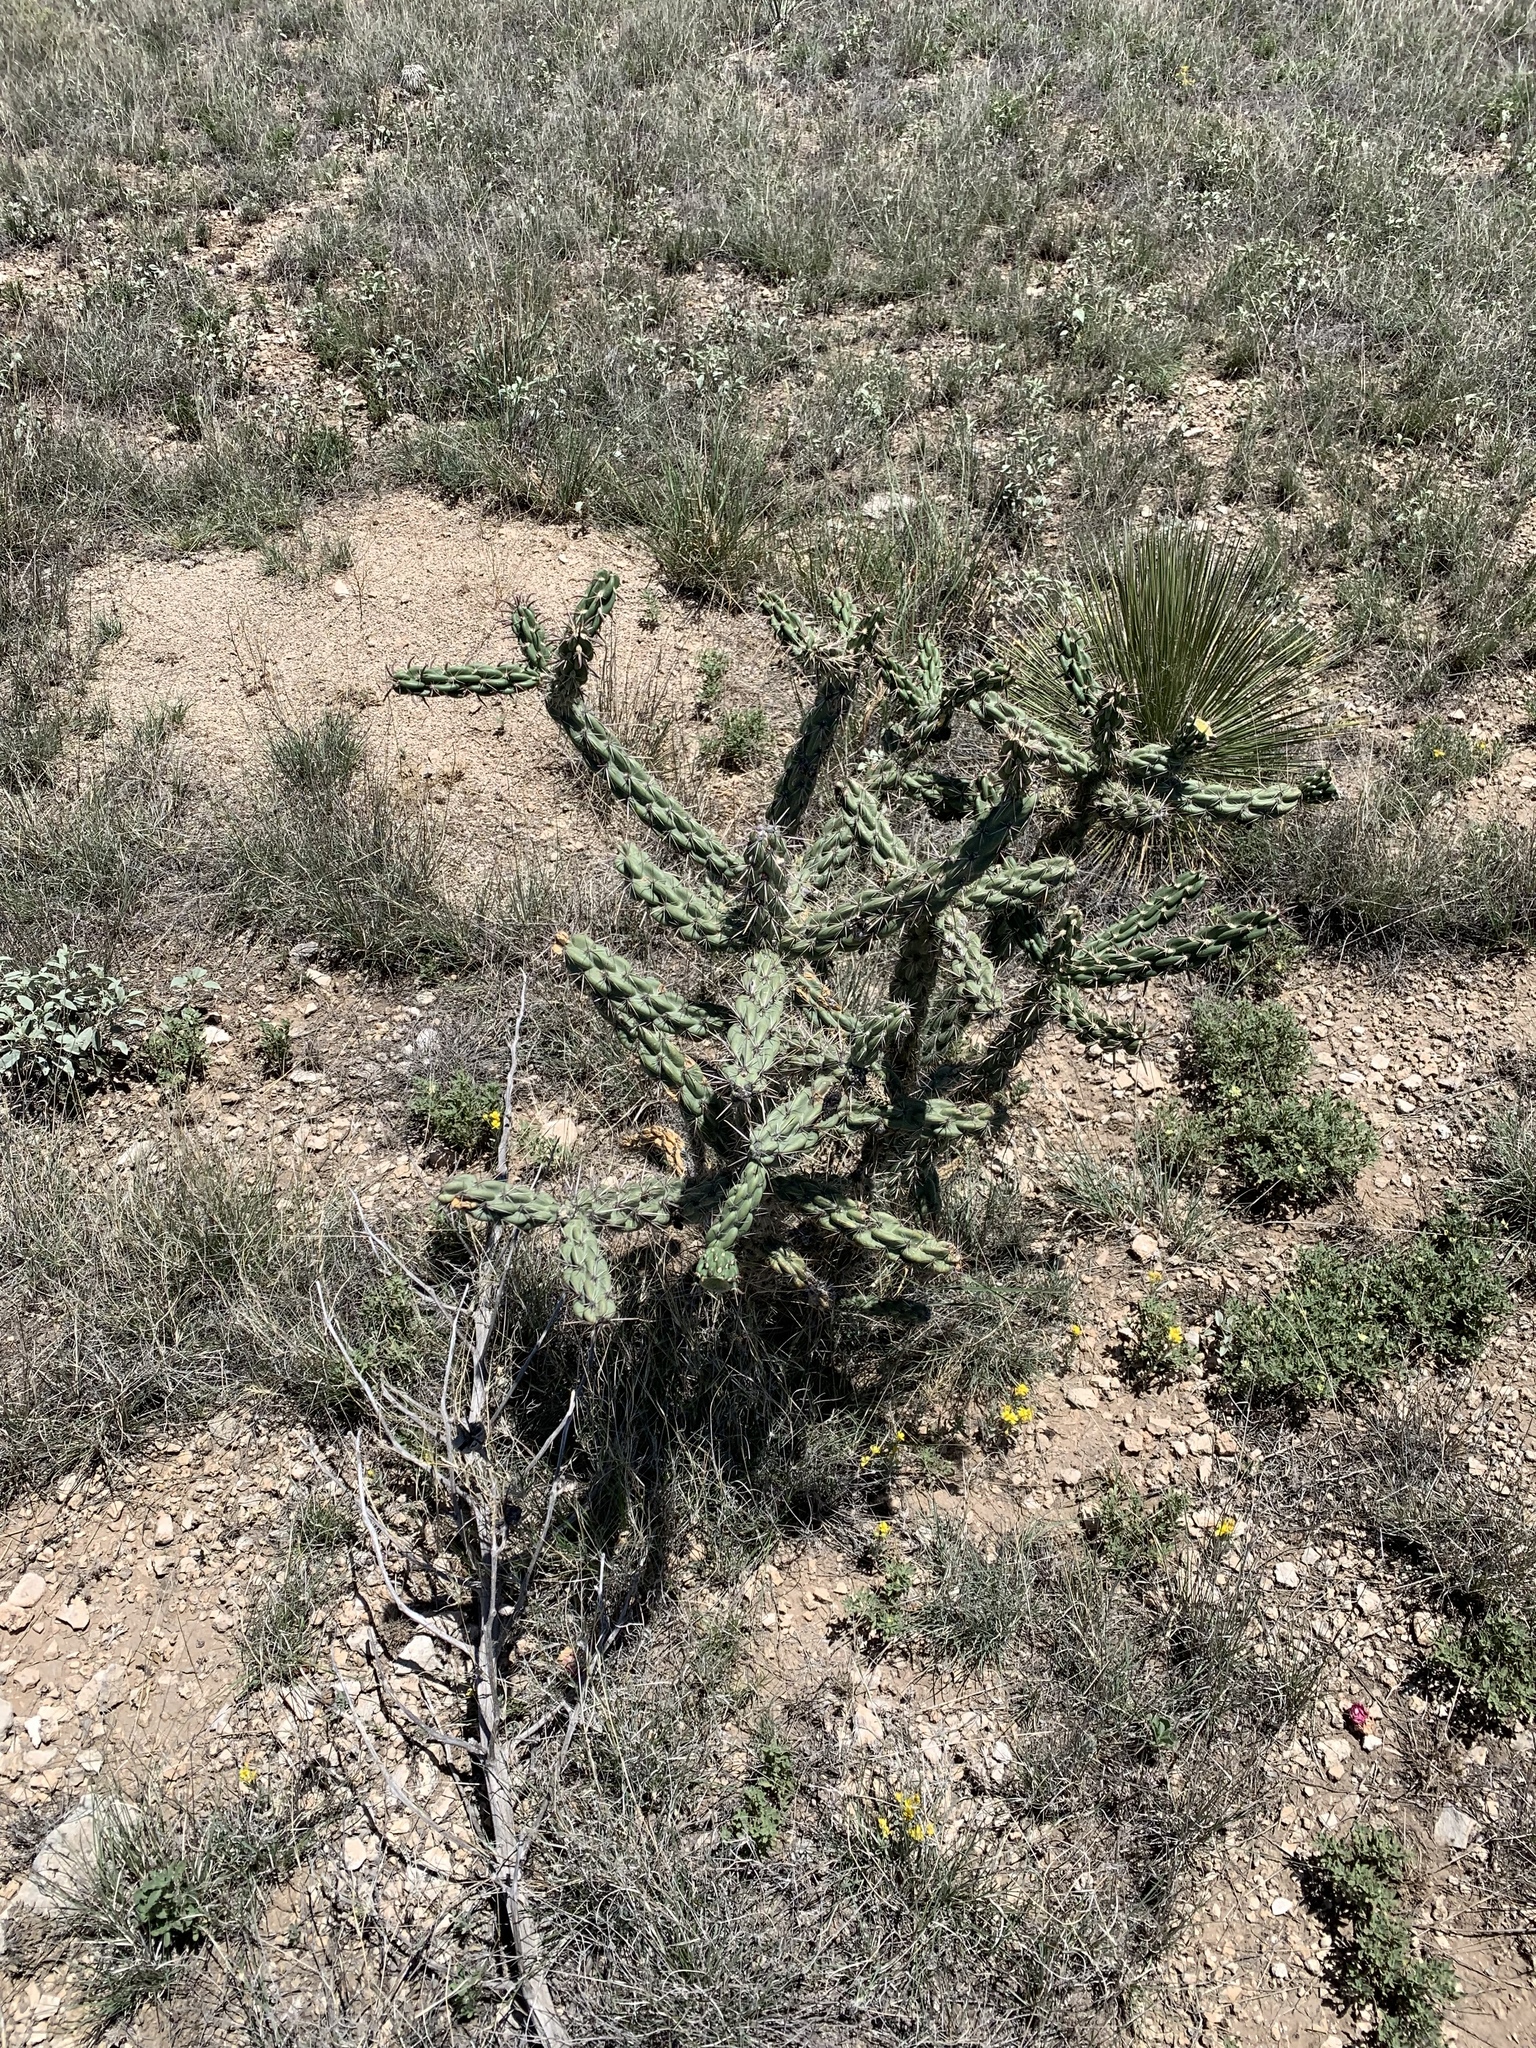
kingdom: Plantae
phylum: Tracheophyta
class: Magnoliopsida
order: Caryophyllales
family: Cactaceae
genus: Cylindropuntia
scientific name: Cylindropuntia imbricata
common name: Candelabrum cactus
